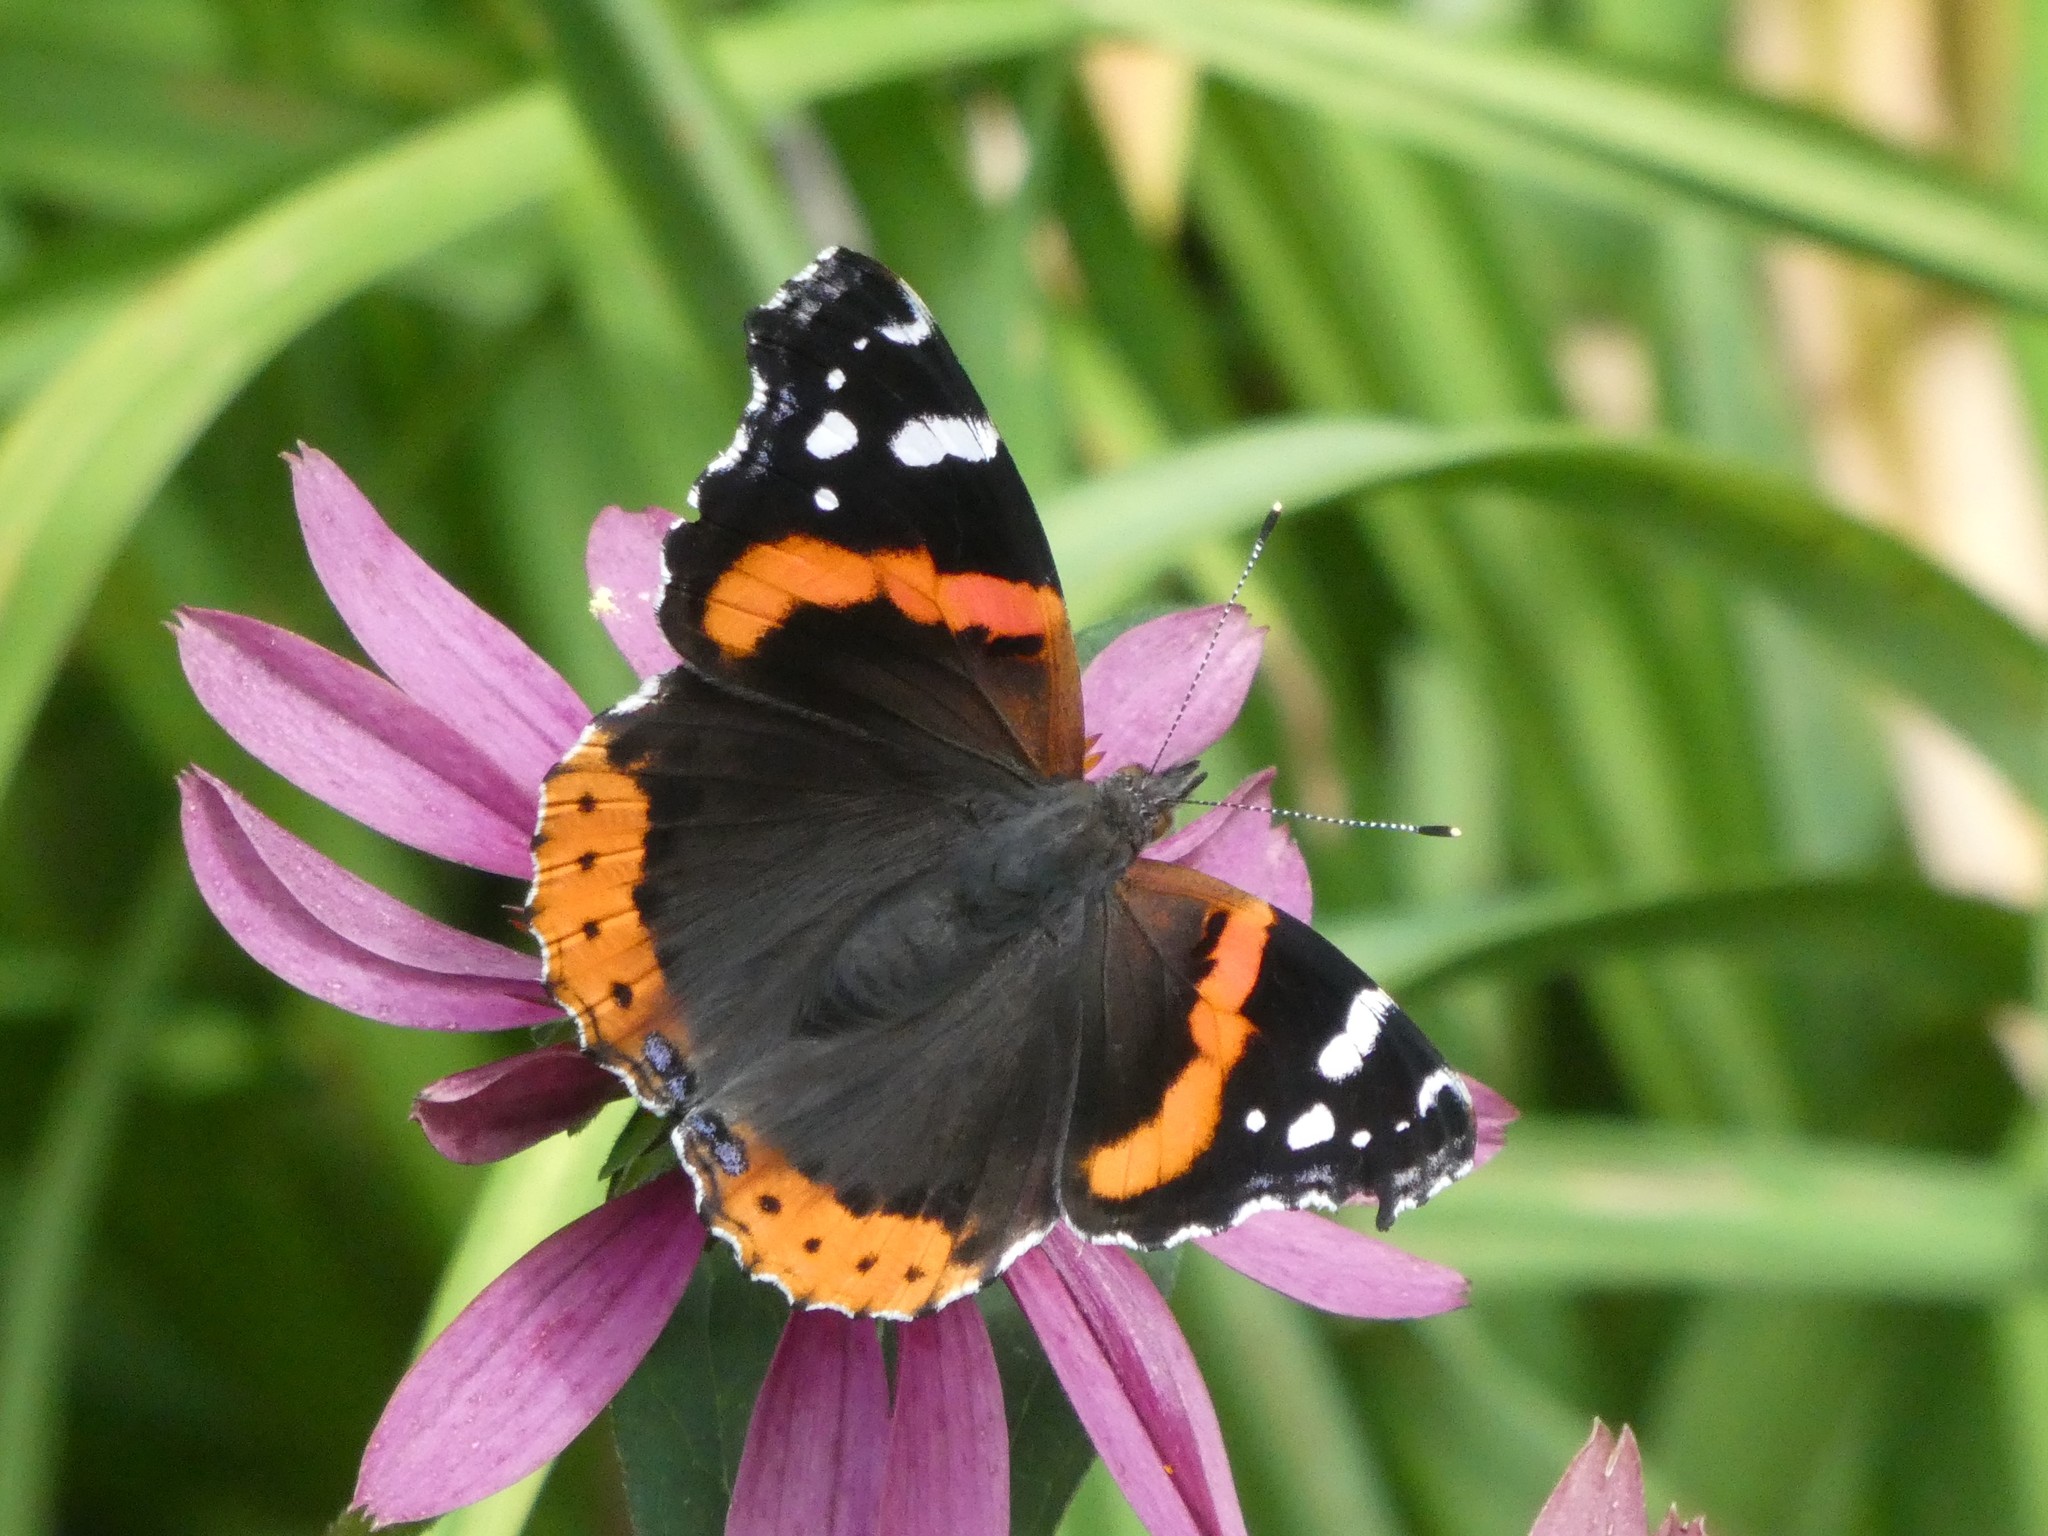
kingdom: Animalia
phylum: Arthropoda
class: Insecta
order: Lepidoptera
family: Nymphalidae
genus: Vanessa
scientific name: Vanessa atalanta
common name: Red admiral
